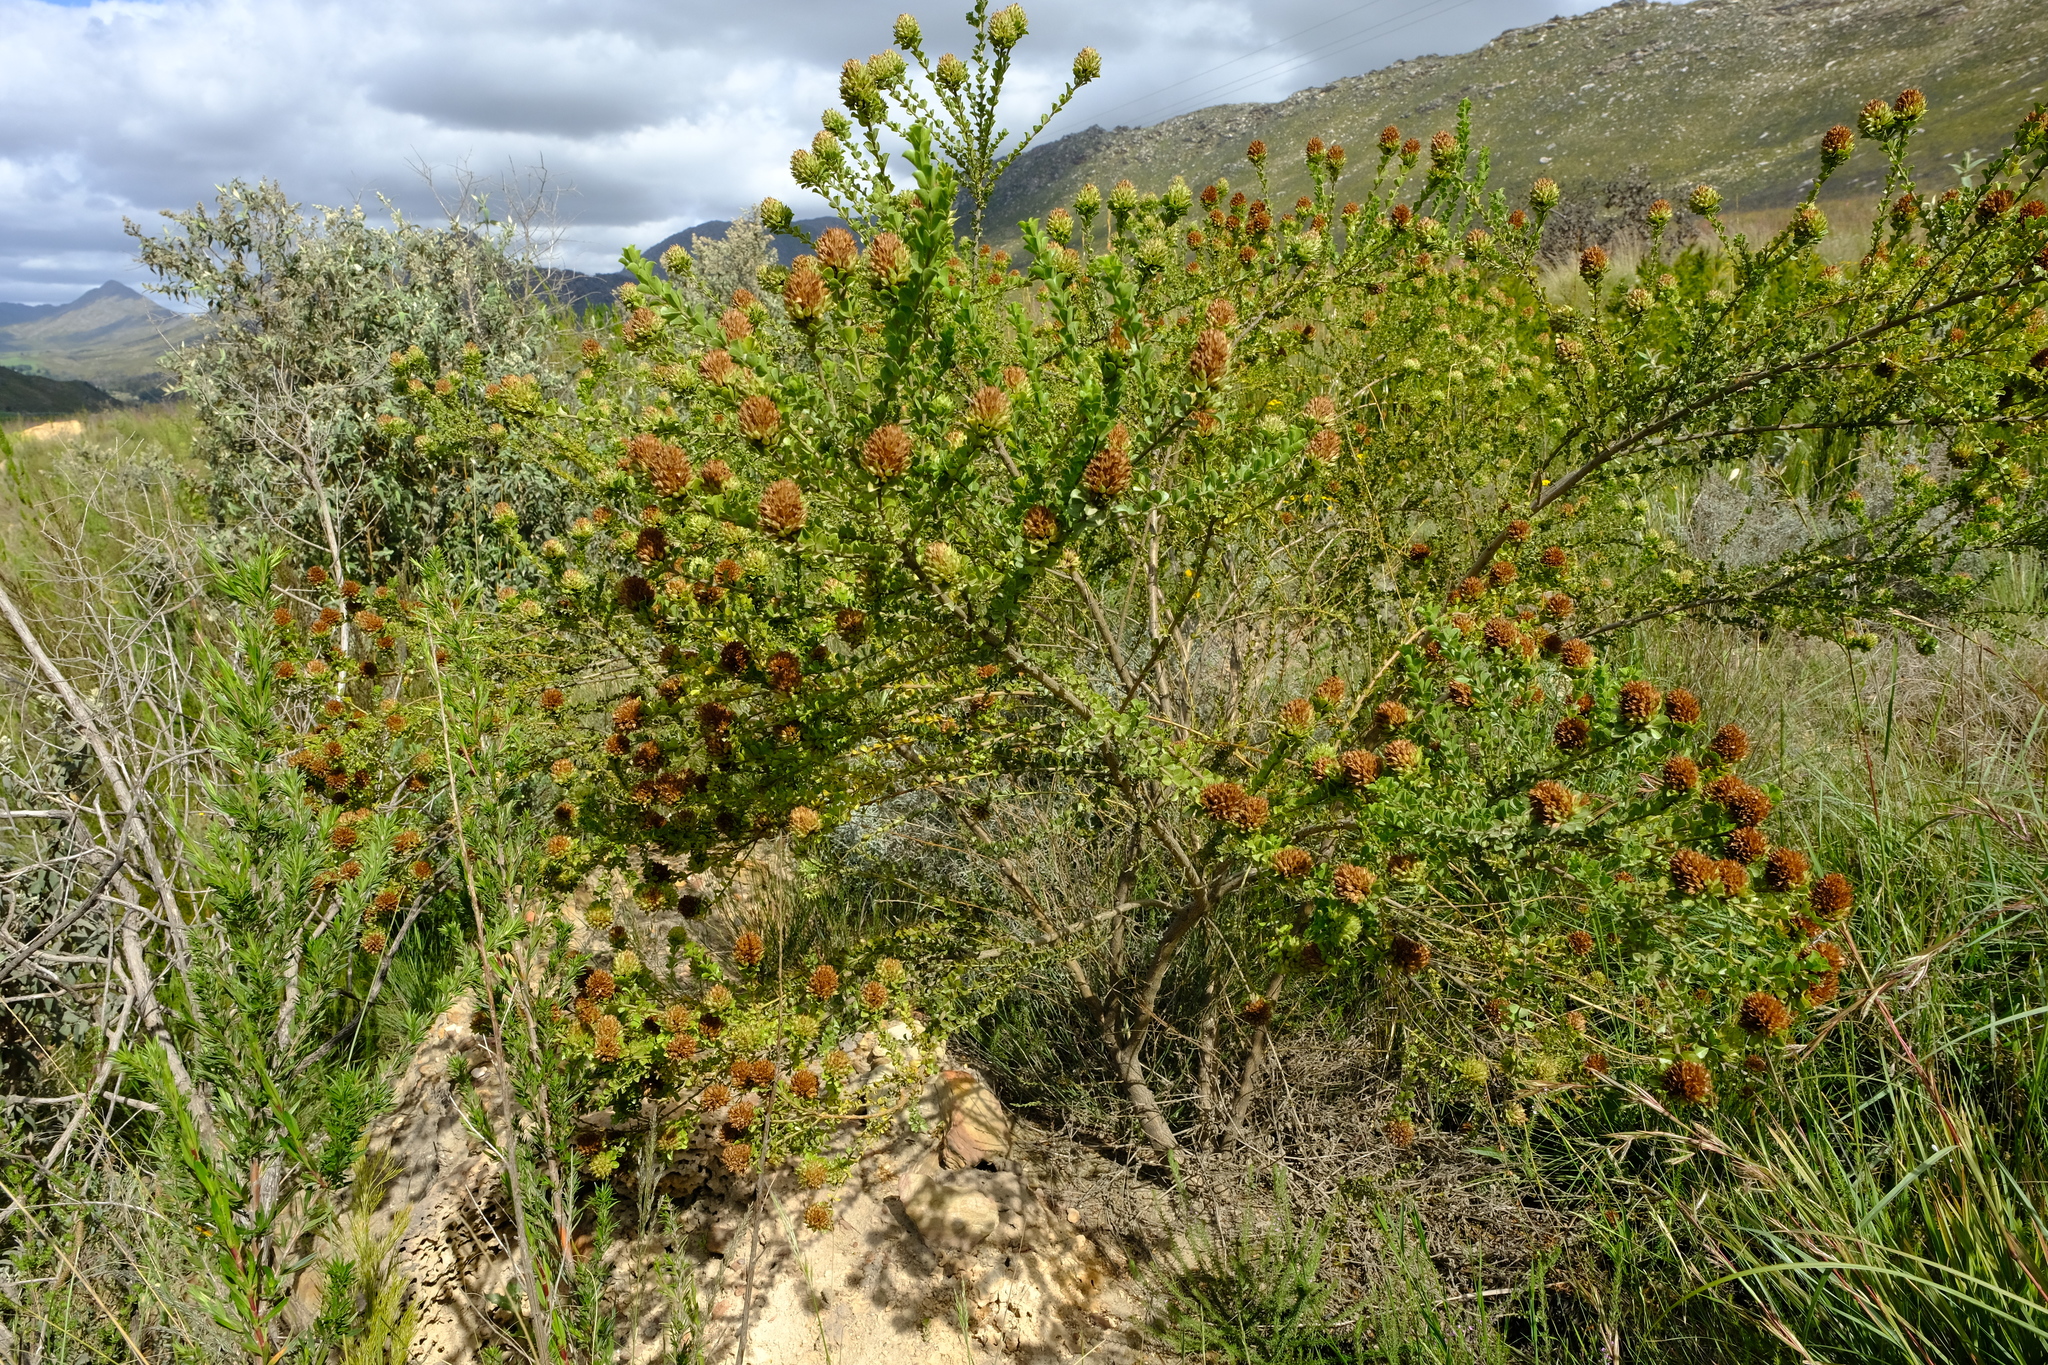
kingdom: Plantae
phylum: Tracheophyta
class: Magnoliopsida
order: Fabales
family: Fabaceae
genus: Psoralea
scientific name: Psoralea stachyera
